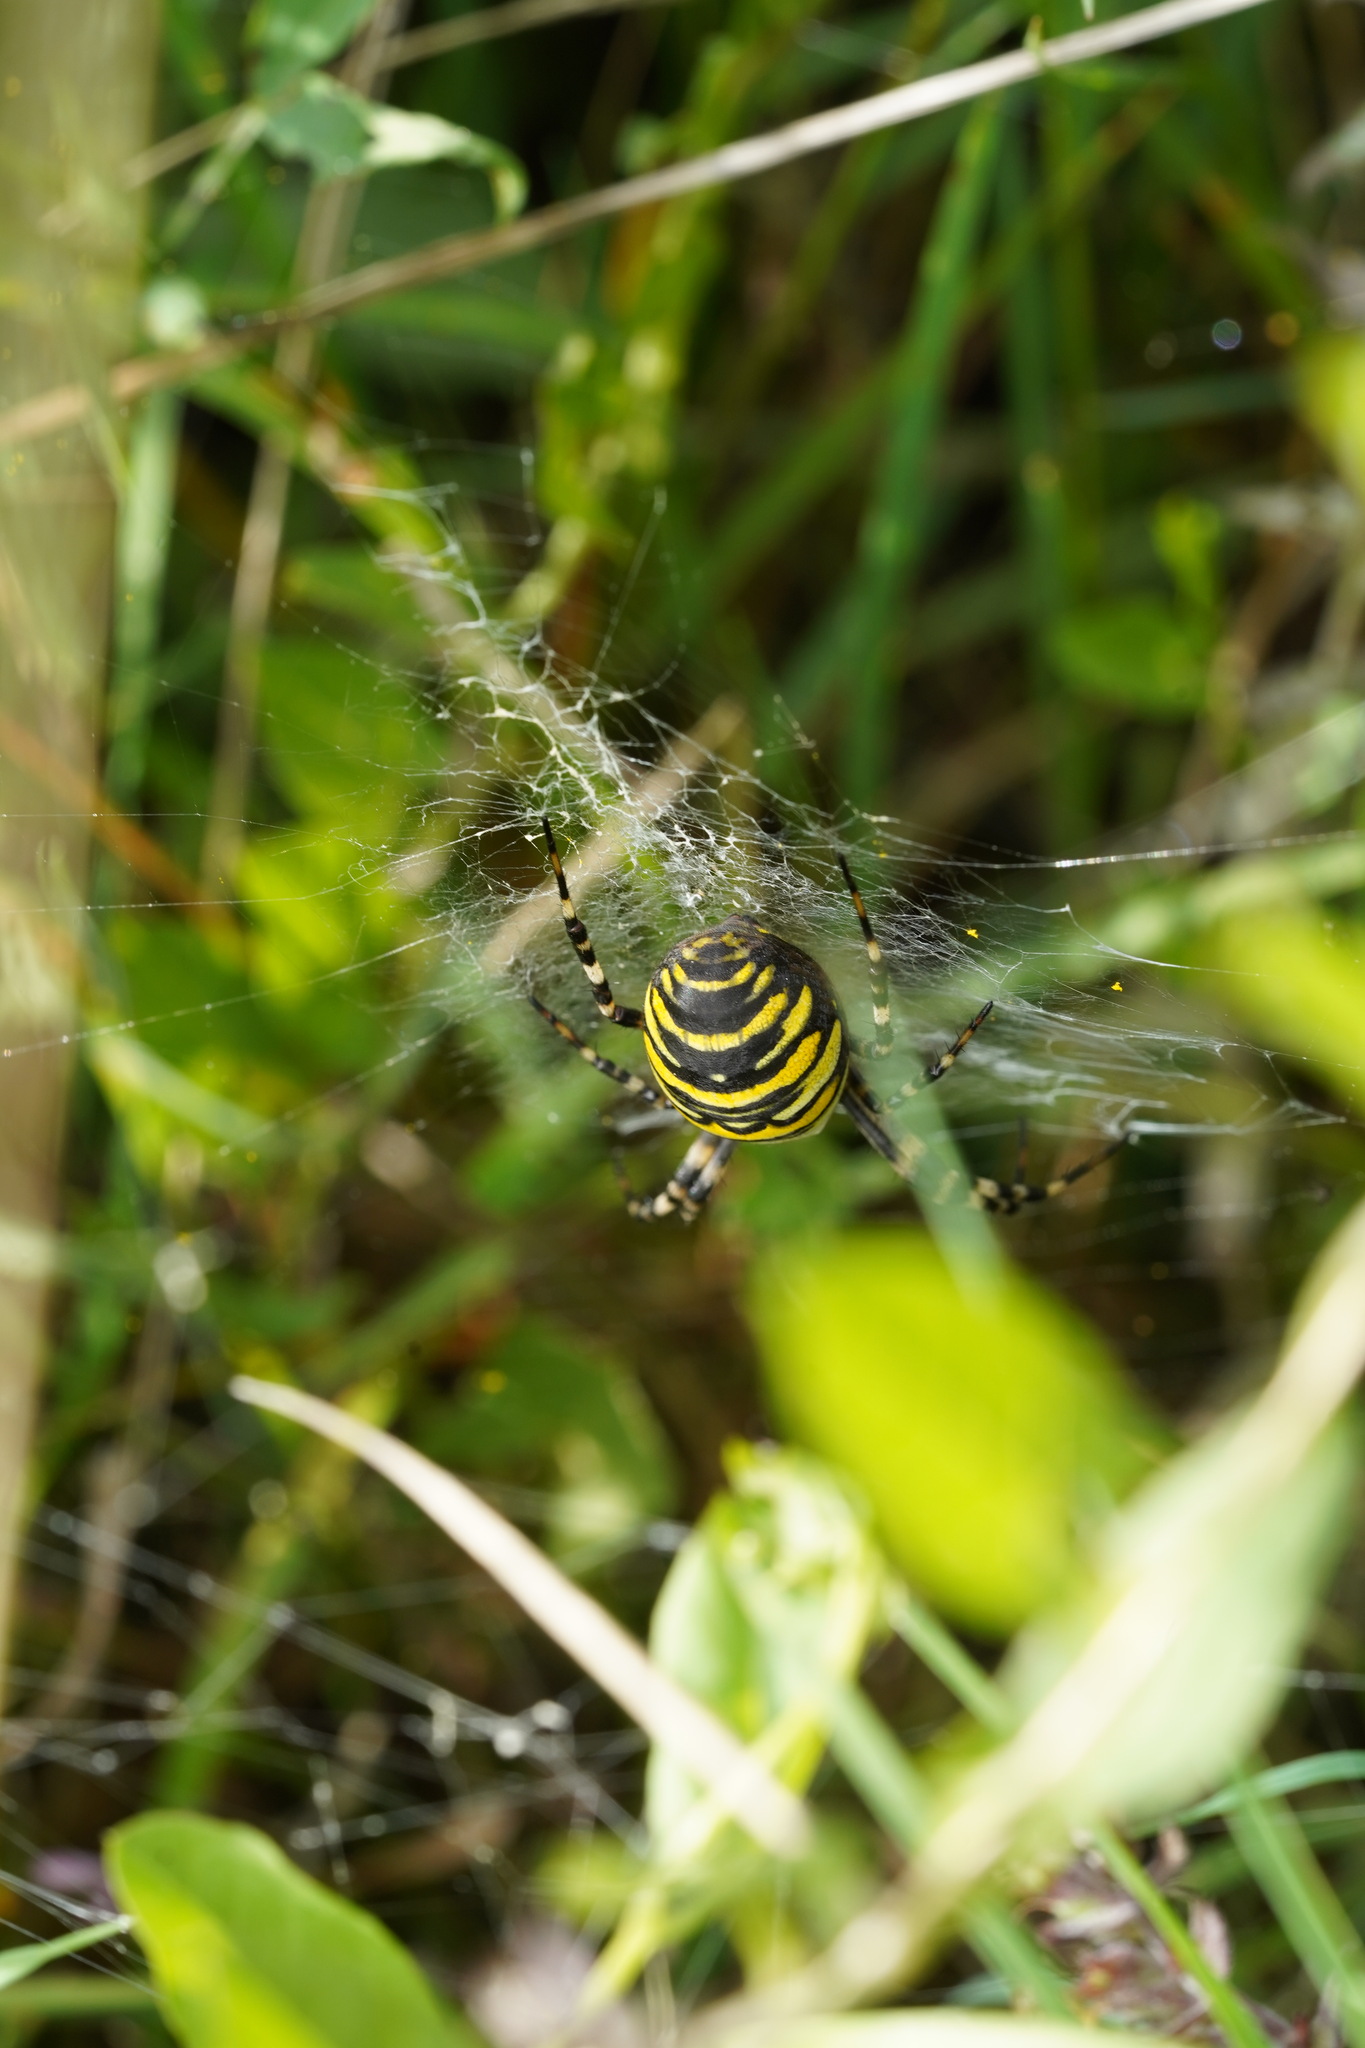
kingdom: Animalia
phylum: Arthropoda
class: Arachnida
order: Araneae
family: Araneidae
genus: Argiope
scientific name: Argiope bruennichi
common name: Wasp spider
